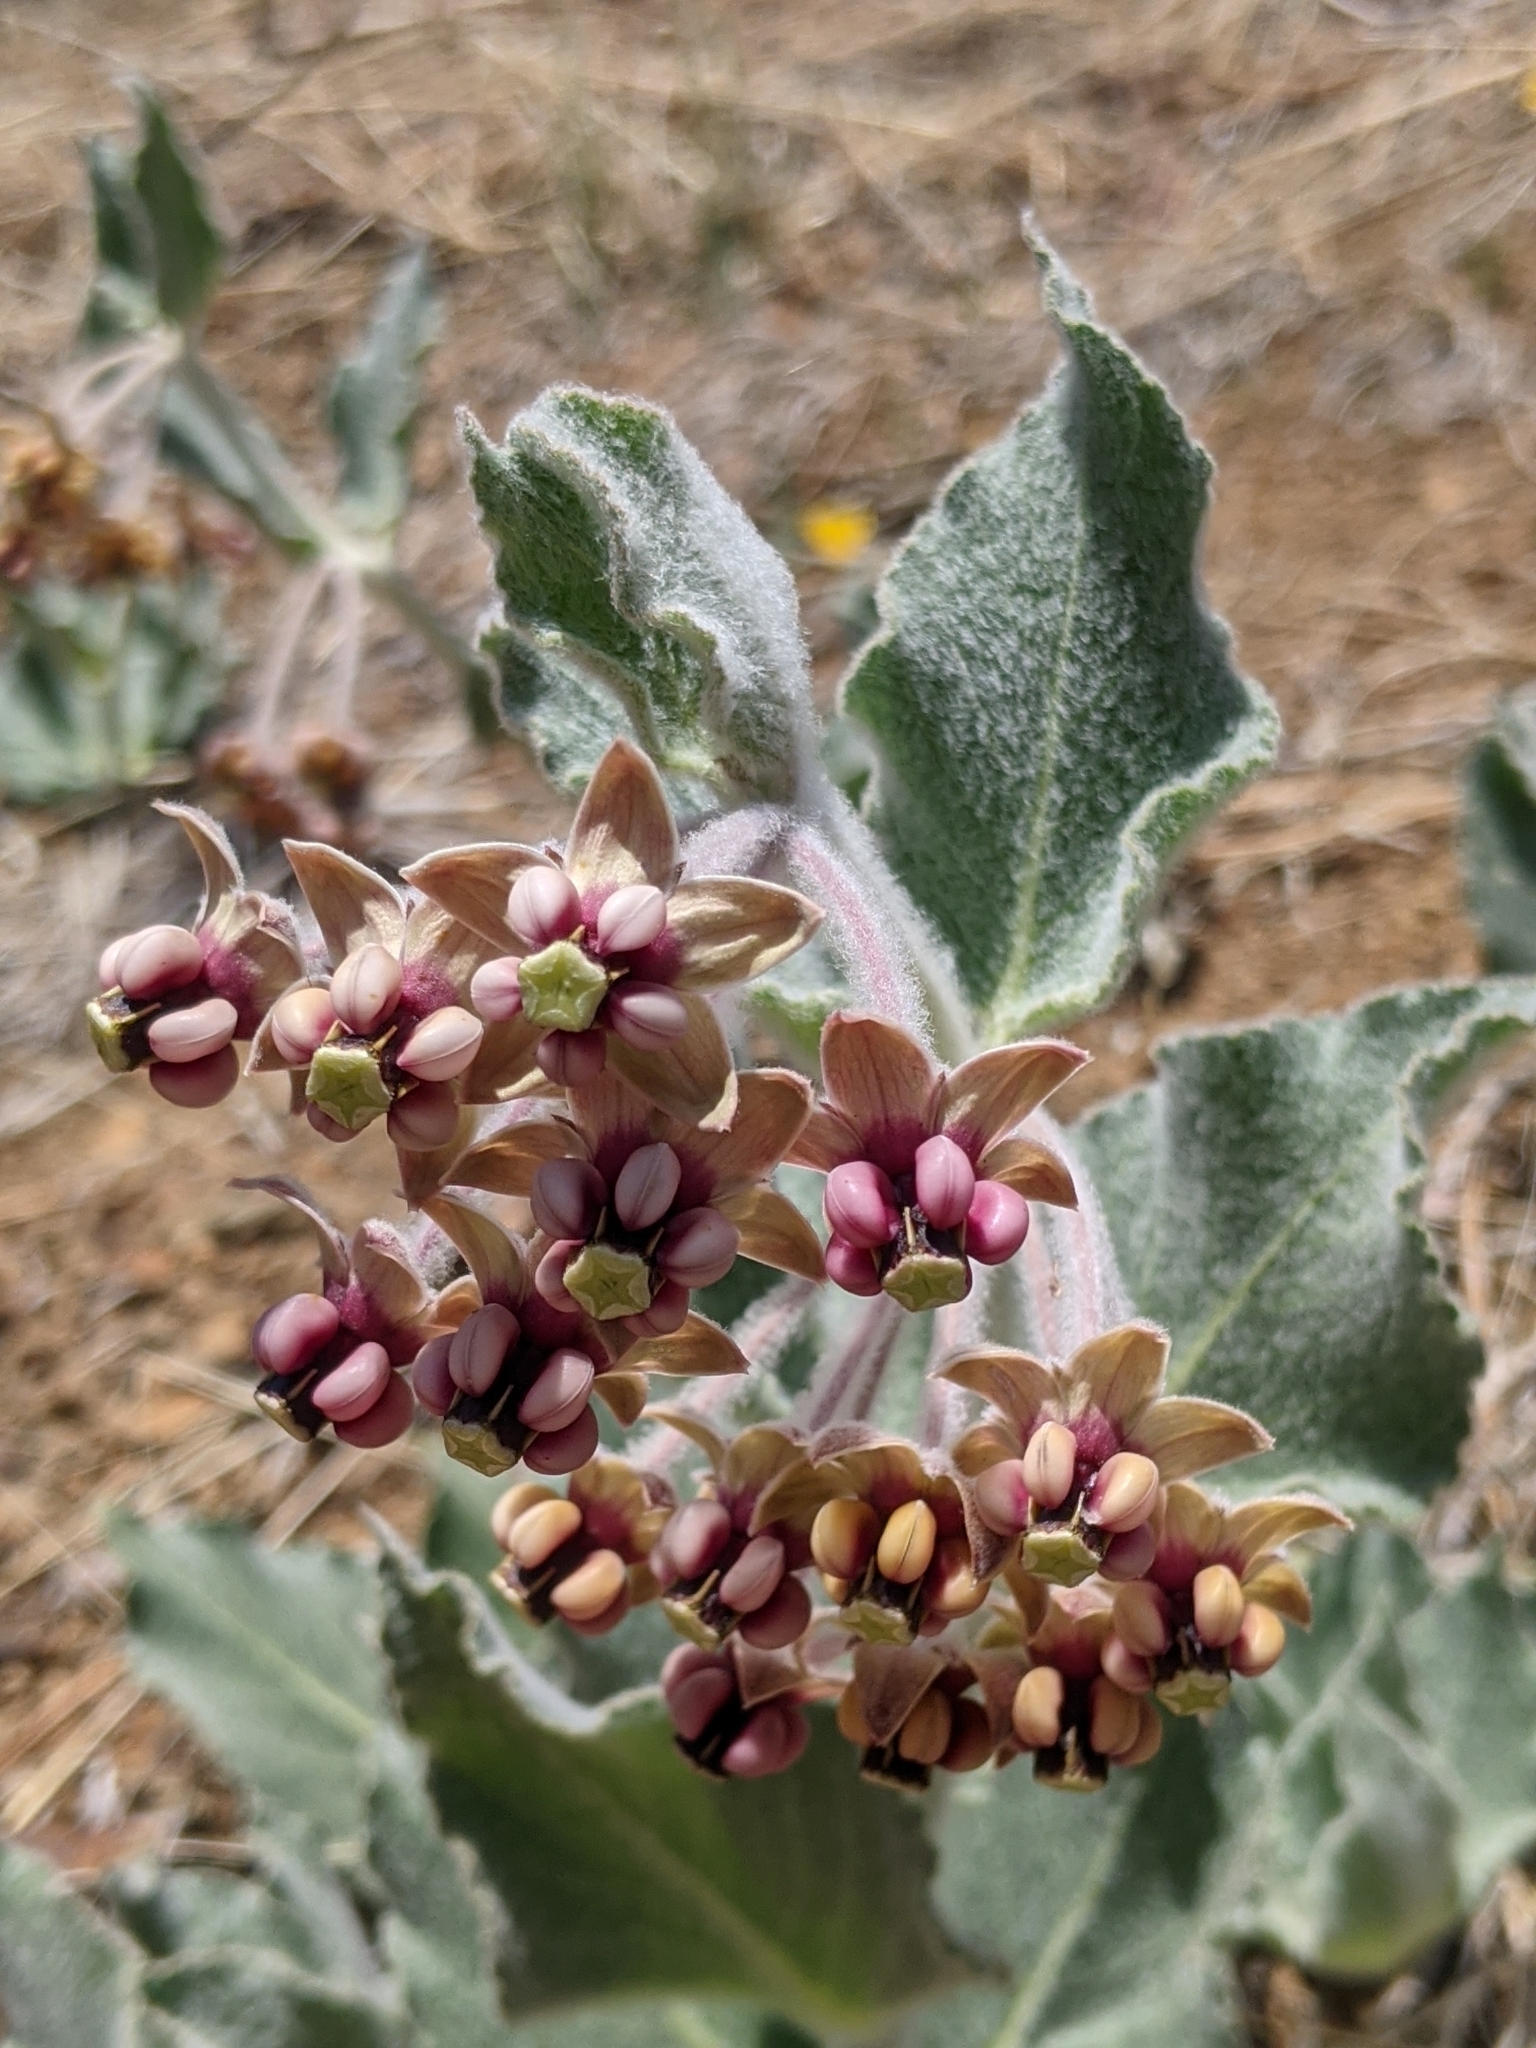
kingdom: Plantae
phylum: Tracheophyta
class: Magnoliopsida
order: Gentianales
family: Apocynaceae
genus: Asclepias
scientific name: Asclepias californica
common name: California milkweed
